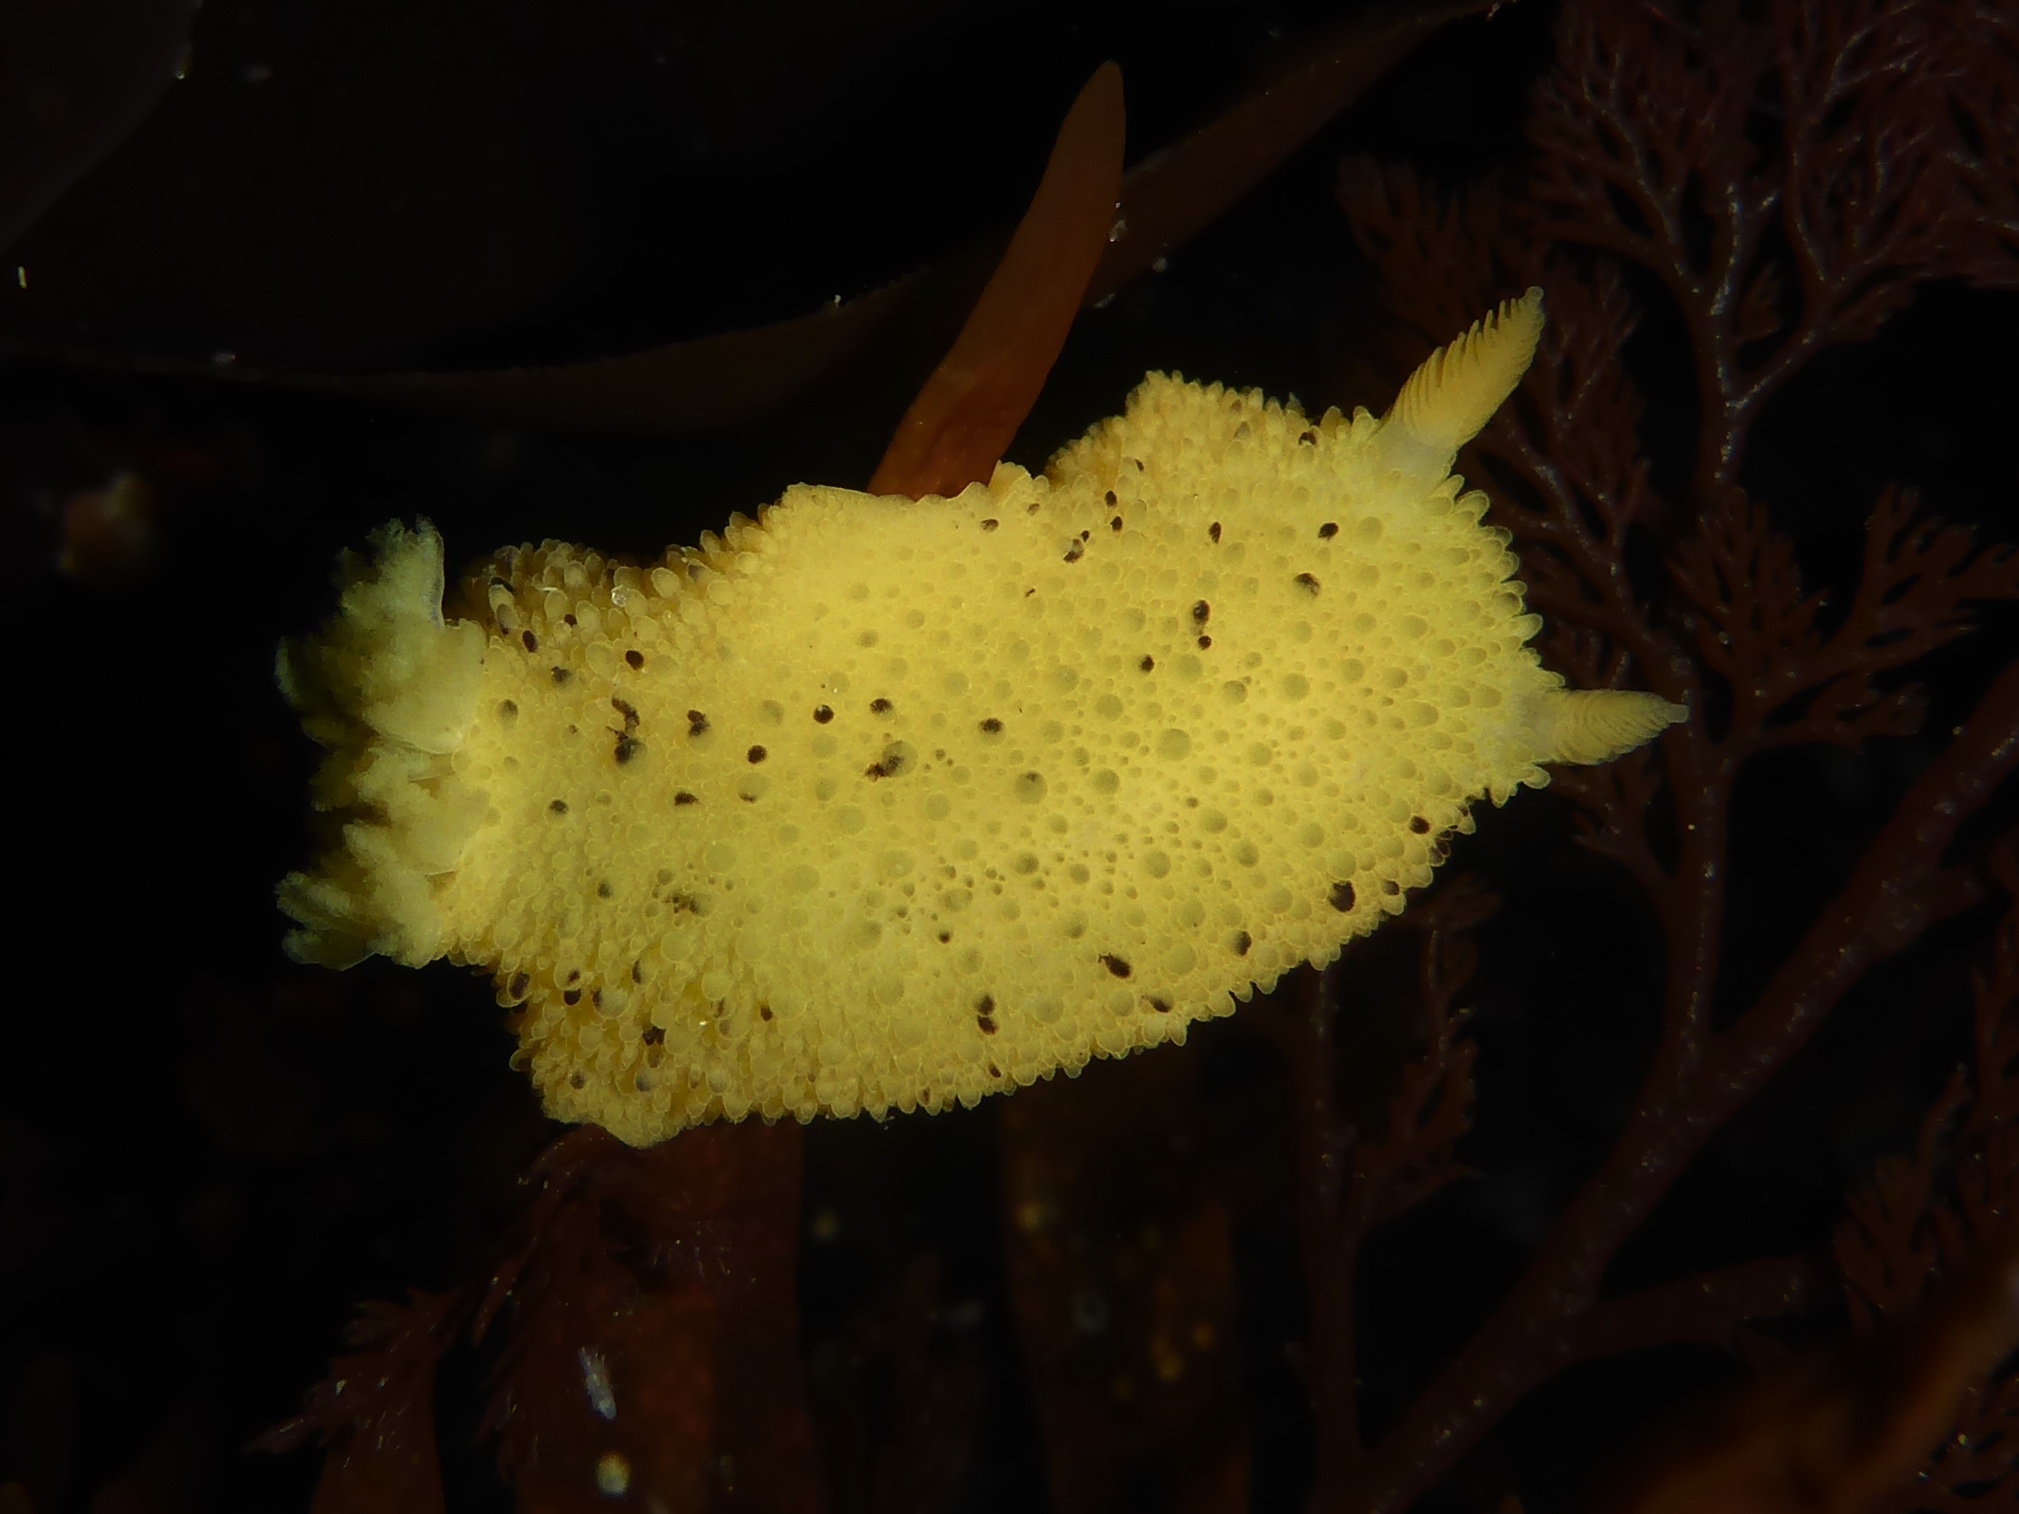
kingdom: Animalia
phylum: Mollusca
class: Gastropoda
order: Nudibranchia
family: Dorididae
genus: Doris
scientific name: Doris montereyensis
